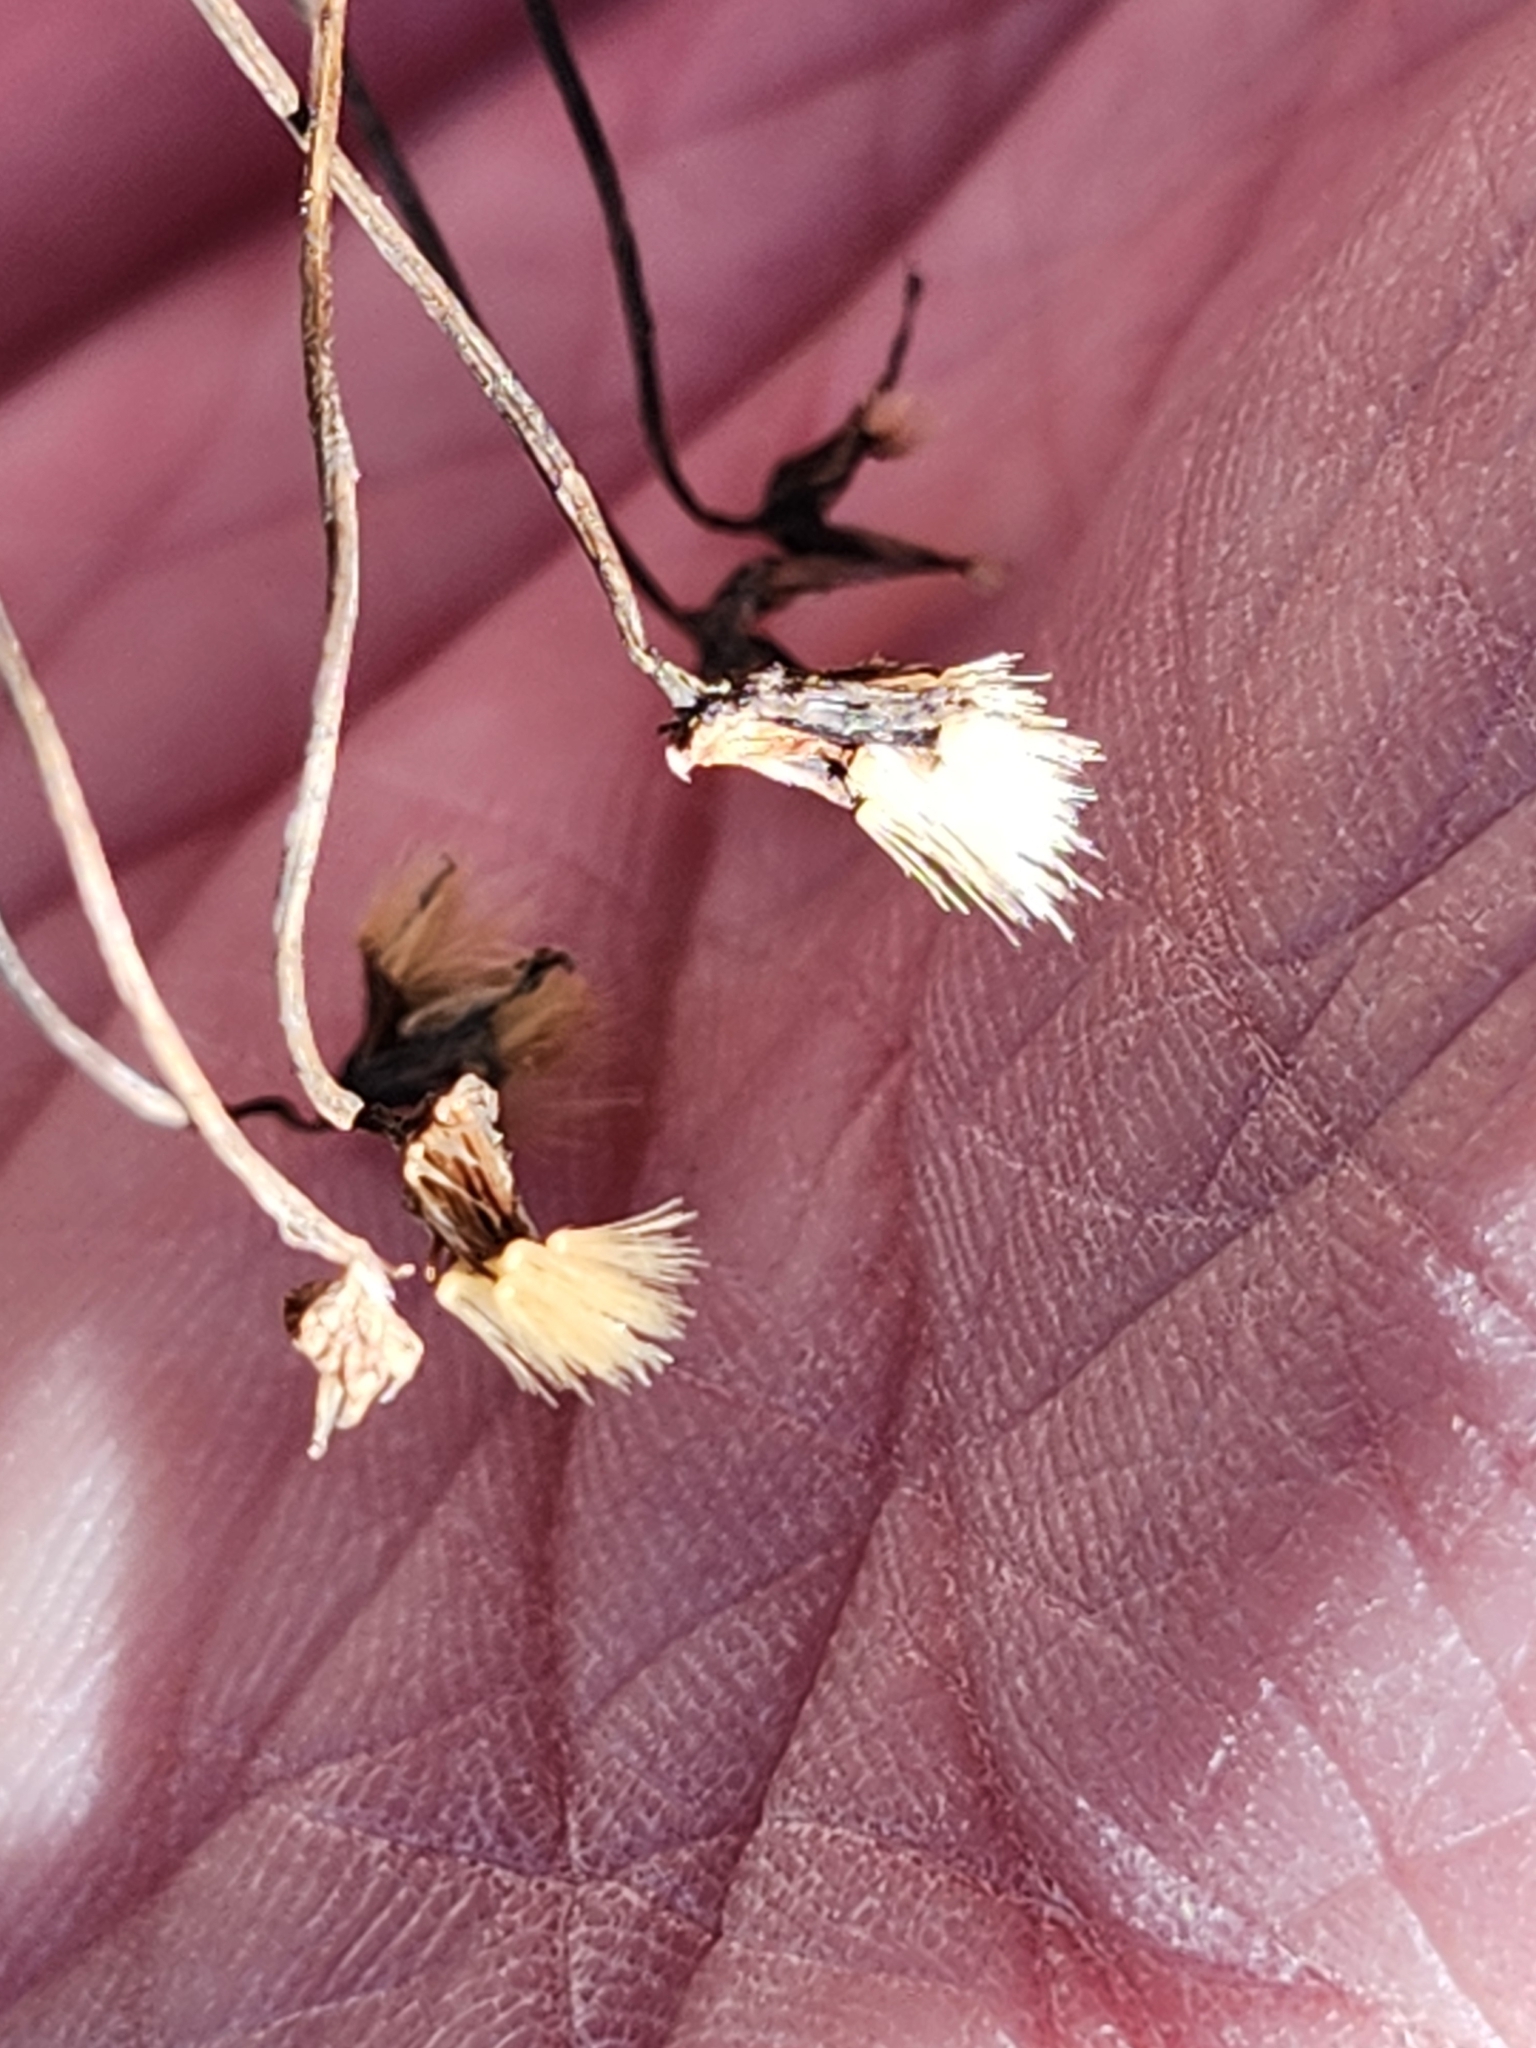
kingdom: Plantae
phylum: Tracheophyta
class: Magnoliopsida
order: Asterales
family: Asteraceae
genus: Hieracium
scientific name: Hieracium venosum
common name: Rattlesnake hawkweed
